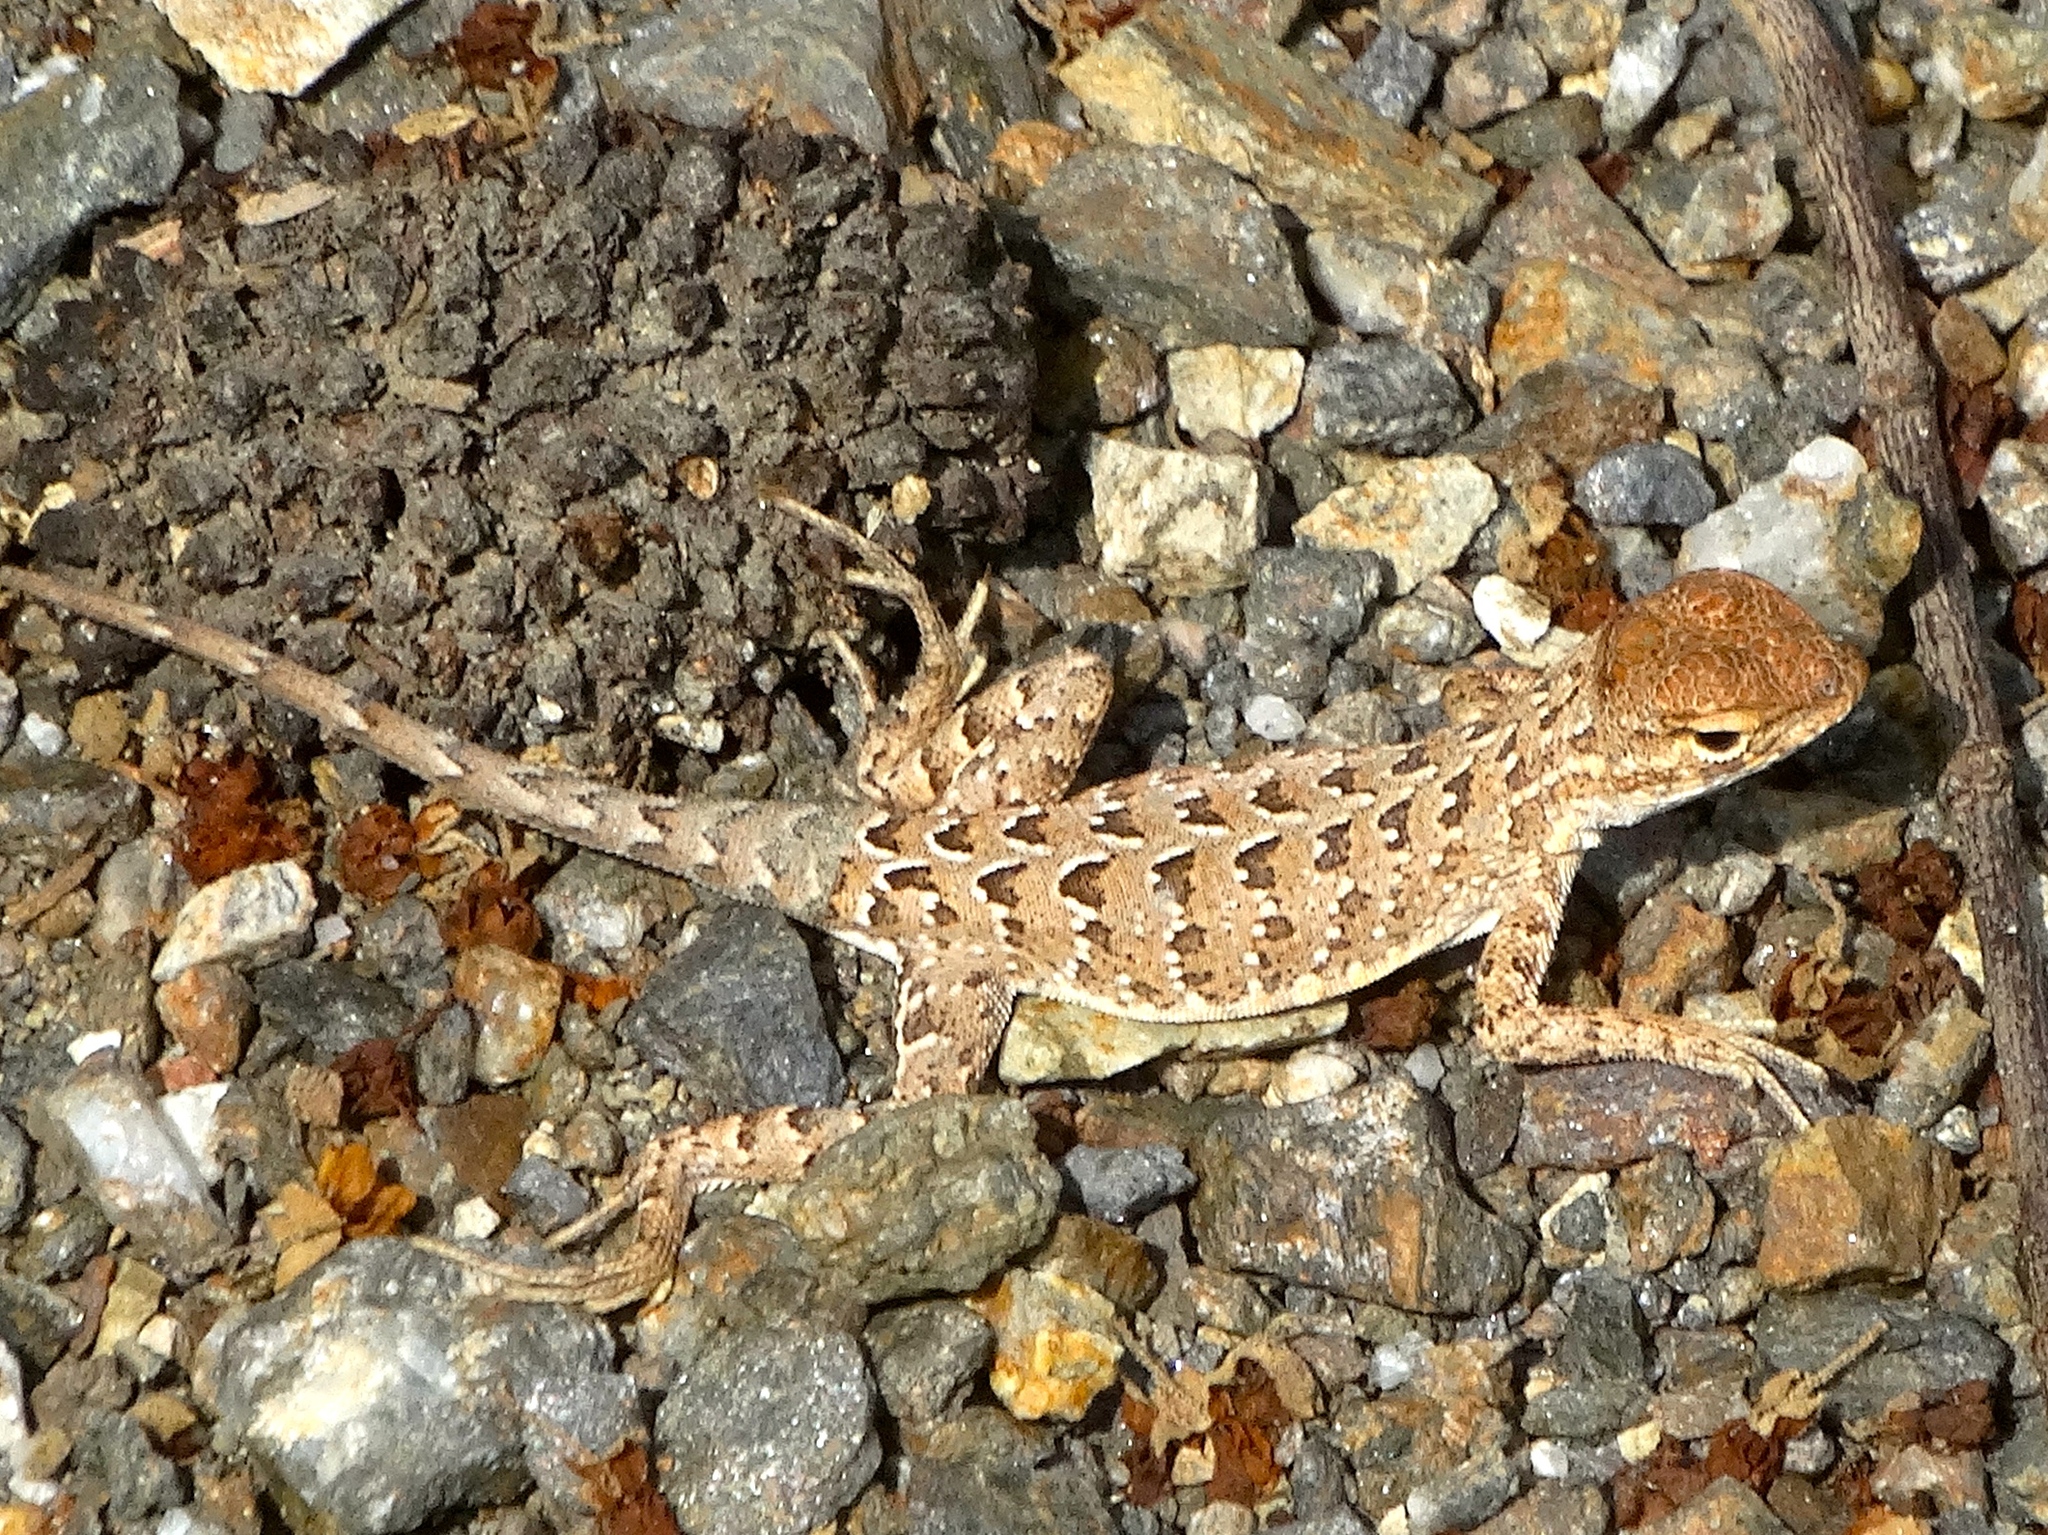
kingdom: Animalia
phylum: Chordata
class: Squamata
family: Phrynosomatidae
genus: Holbrookia
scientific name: Holbrookia elegans
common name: Elegant earless lizard
